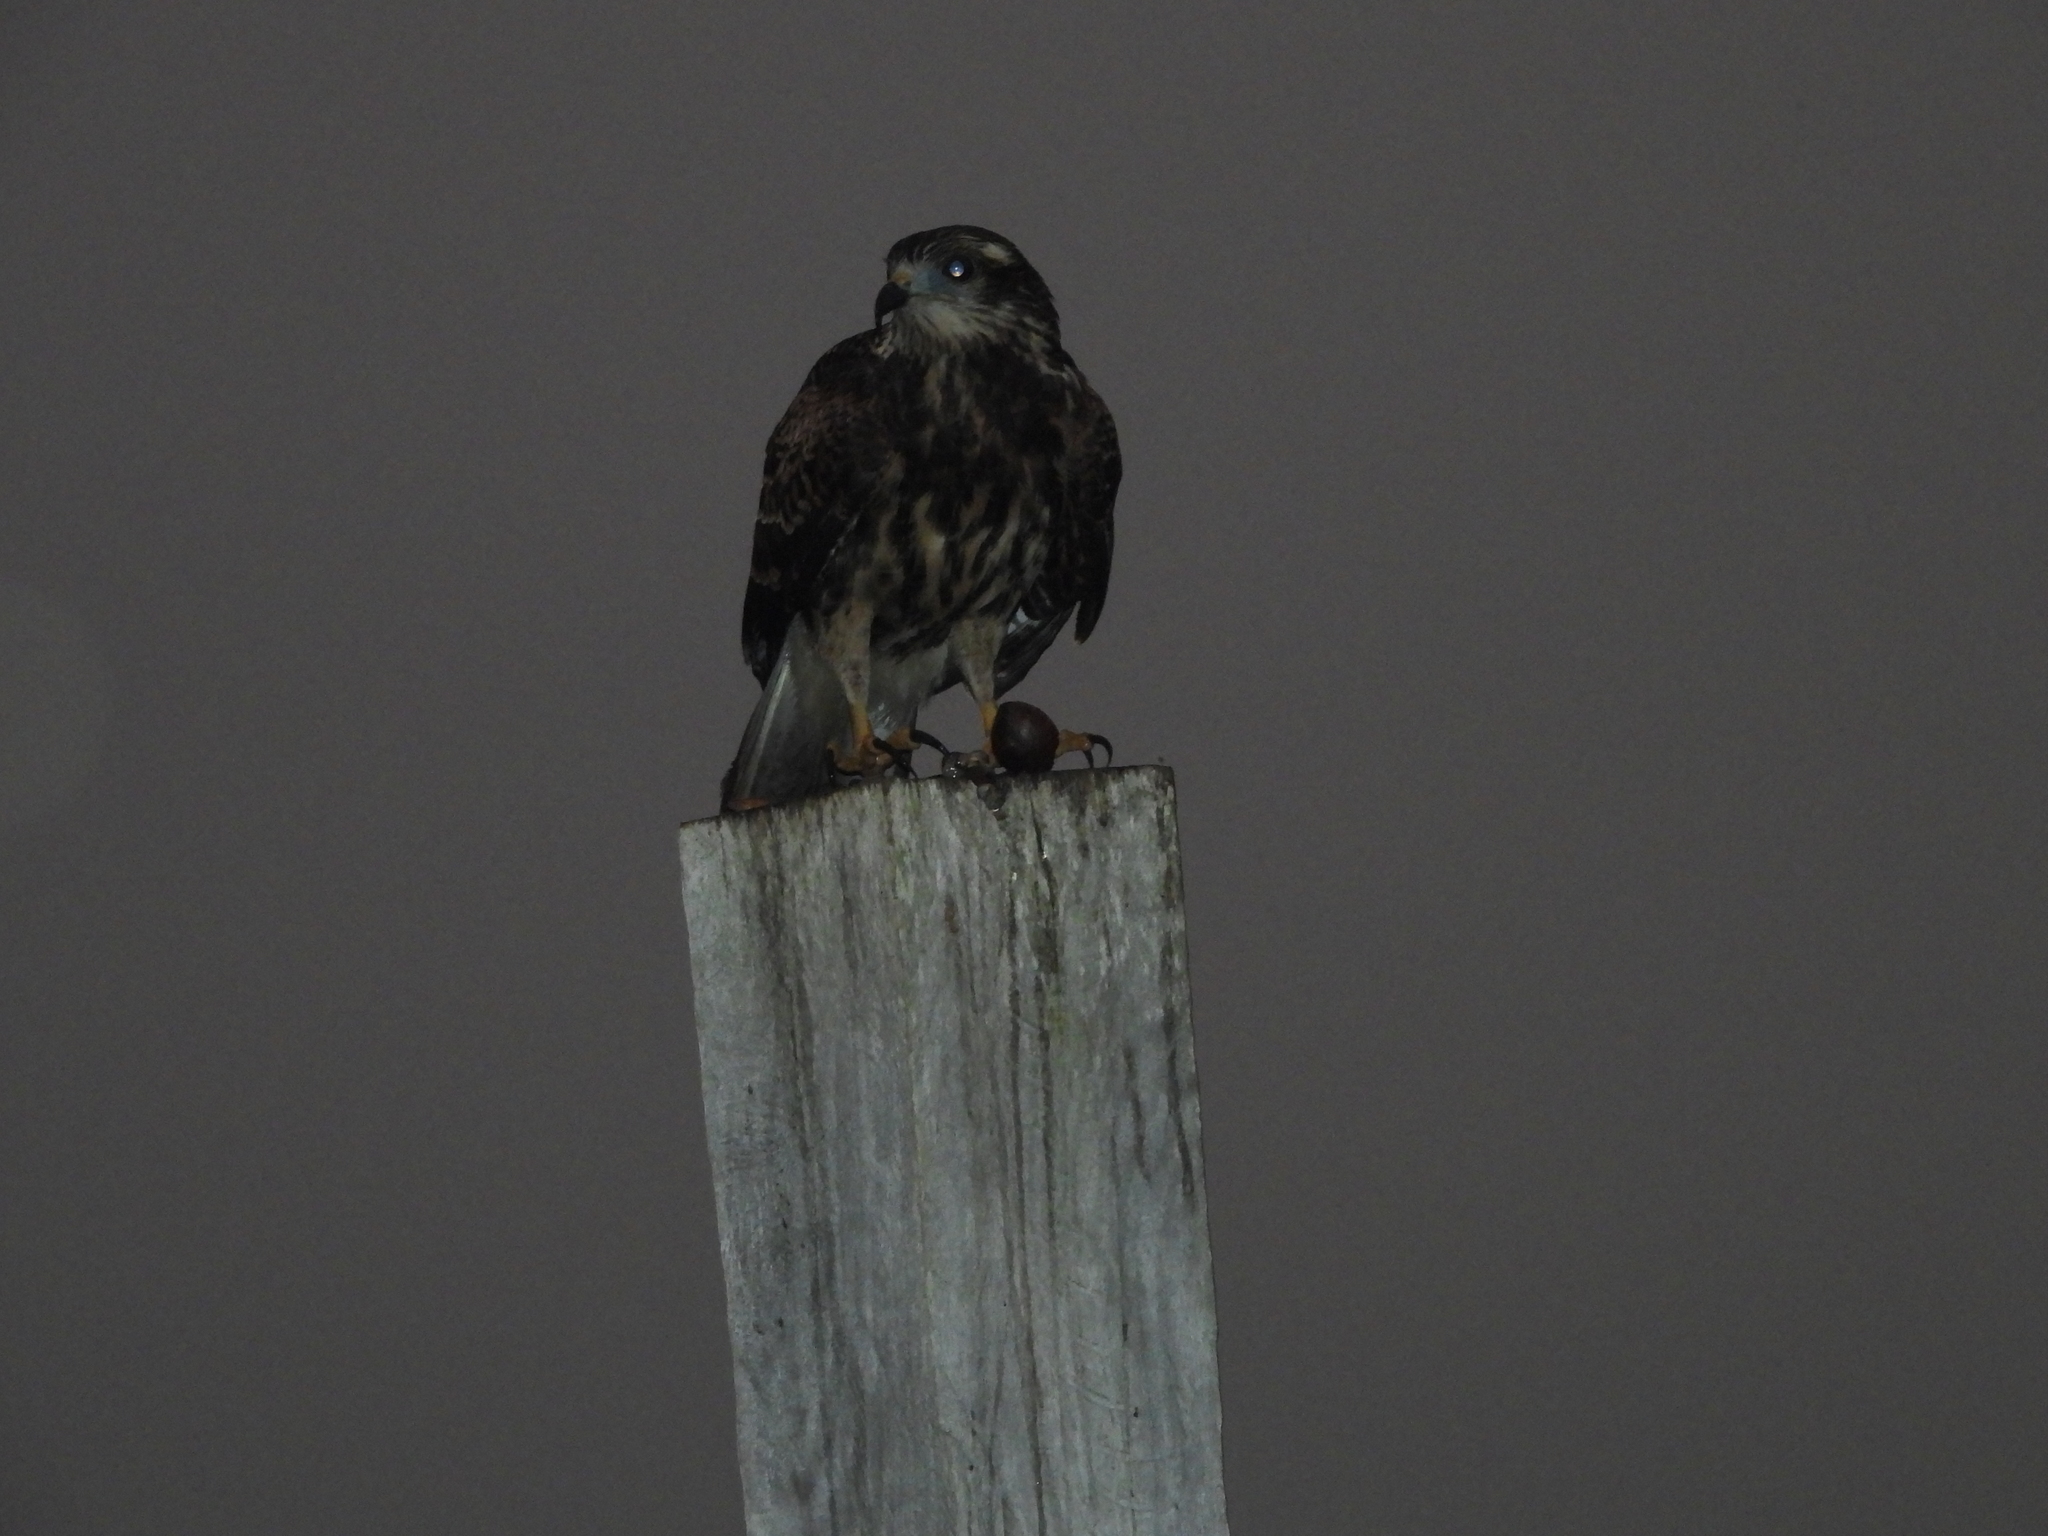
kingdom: Animalia
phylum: Chordata
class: Aves
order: Accipitriformes
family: Accipitridae
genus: Rostrhamus
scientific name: Rostrhamus sociabilis
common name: Snail kite
